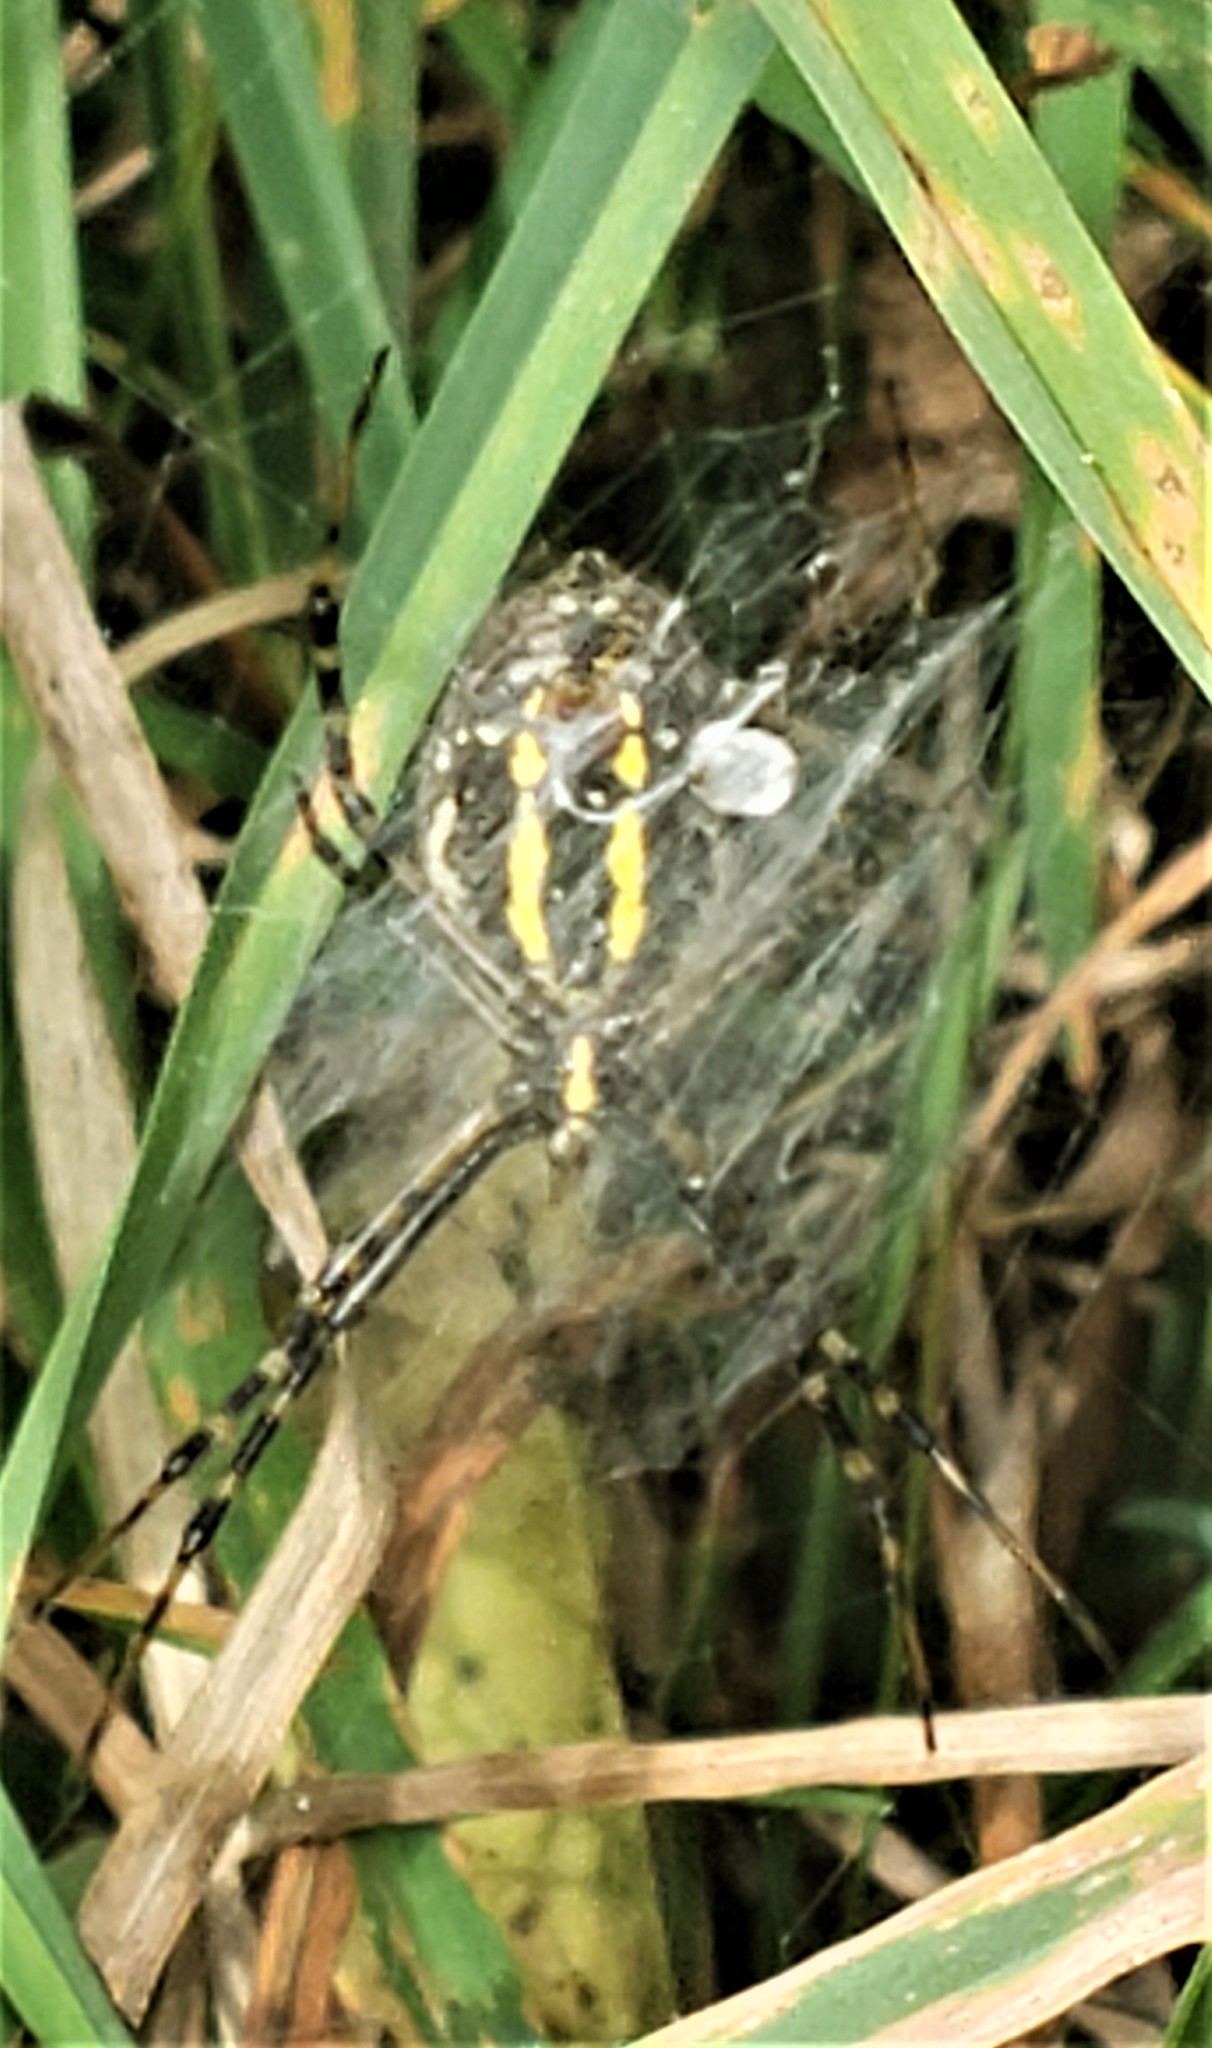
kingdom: Animalia
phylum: Arthropoda
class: Arachnida
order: Araneae
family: Araneidae
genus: Argiope
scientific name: Argiope trifasciata
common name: Banded garden spider
